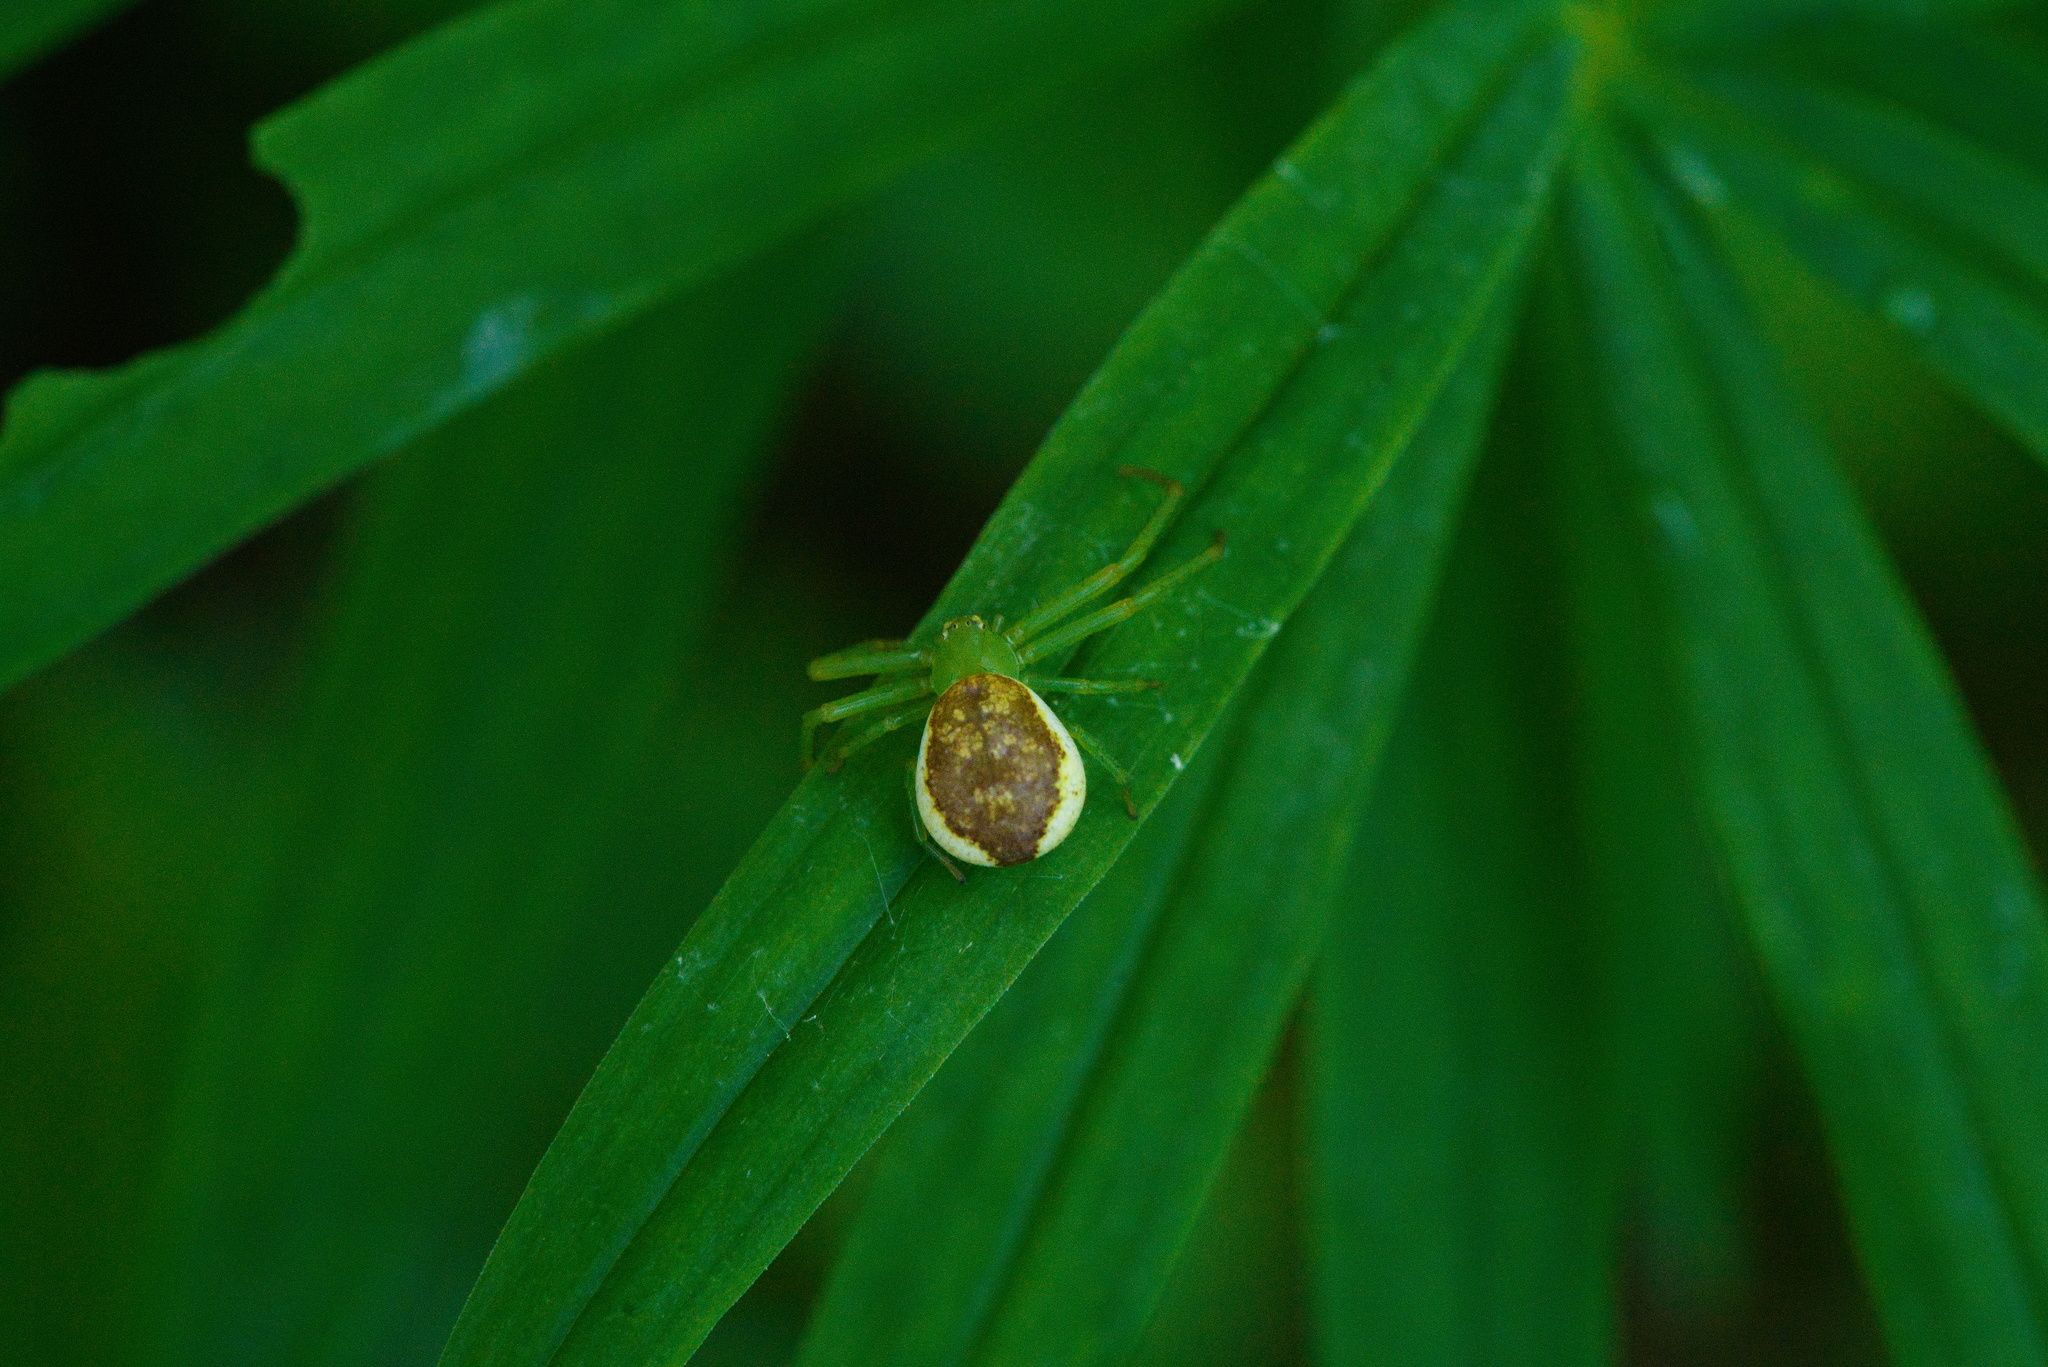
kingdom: Animalia
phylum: Arthropoda
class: Arachnida
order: Araneae
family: Thomisidae
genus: Diaea
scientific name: Diaea dorsata
